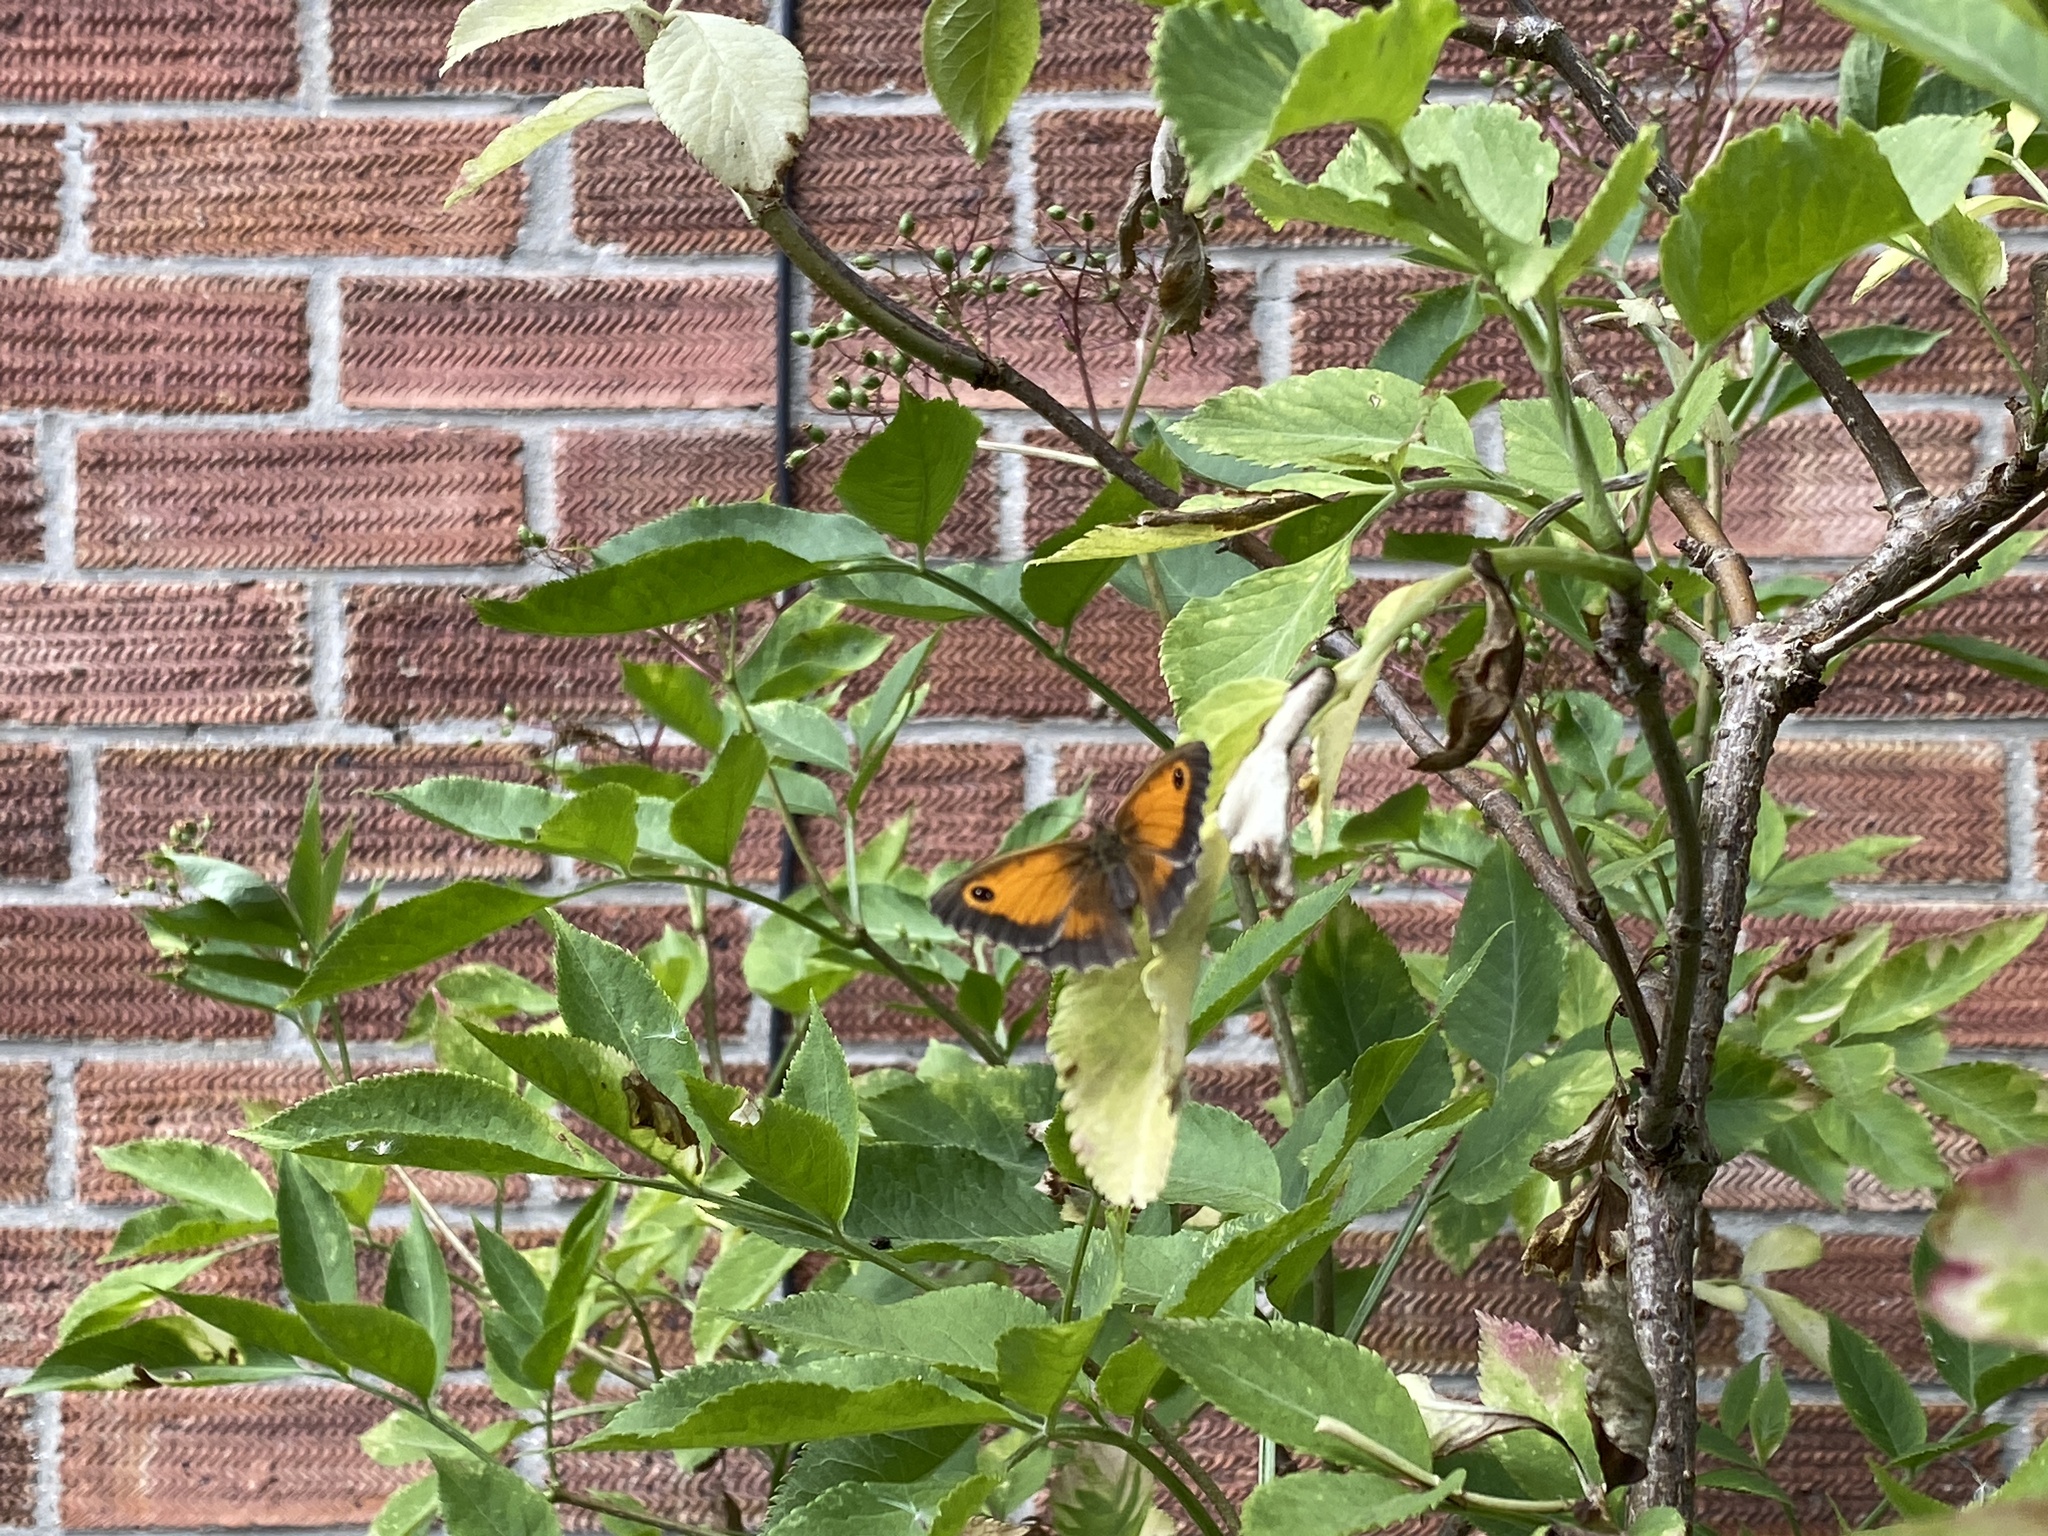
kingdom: Animalia
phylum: Arthropoda
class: Insecta
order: Lepidoptera
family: Nymphalidae
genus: Pyronia
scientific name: Pyronia tithonus
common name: Gatekeeper
